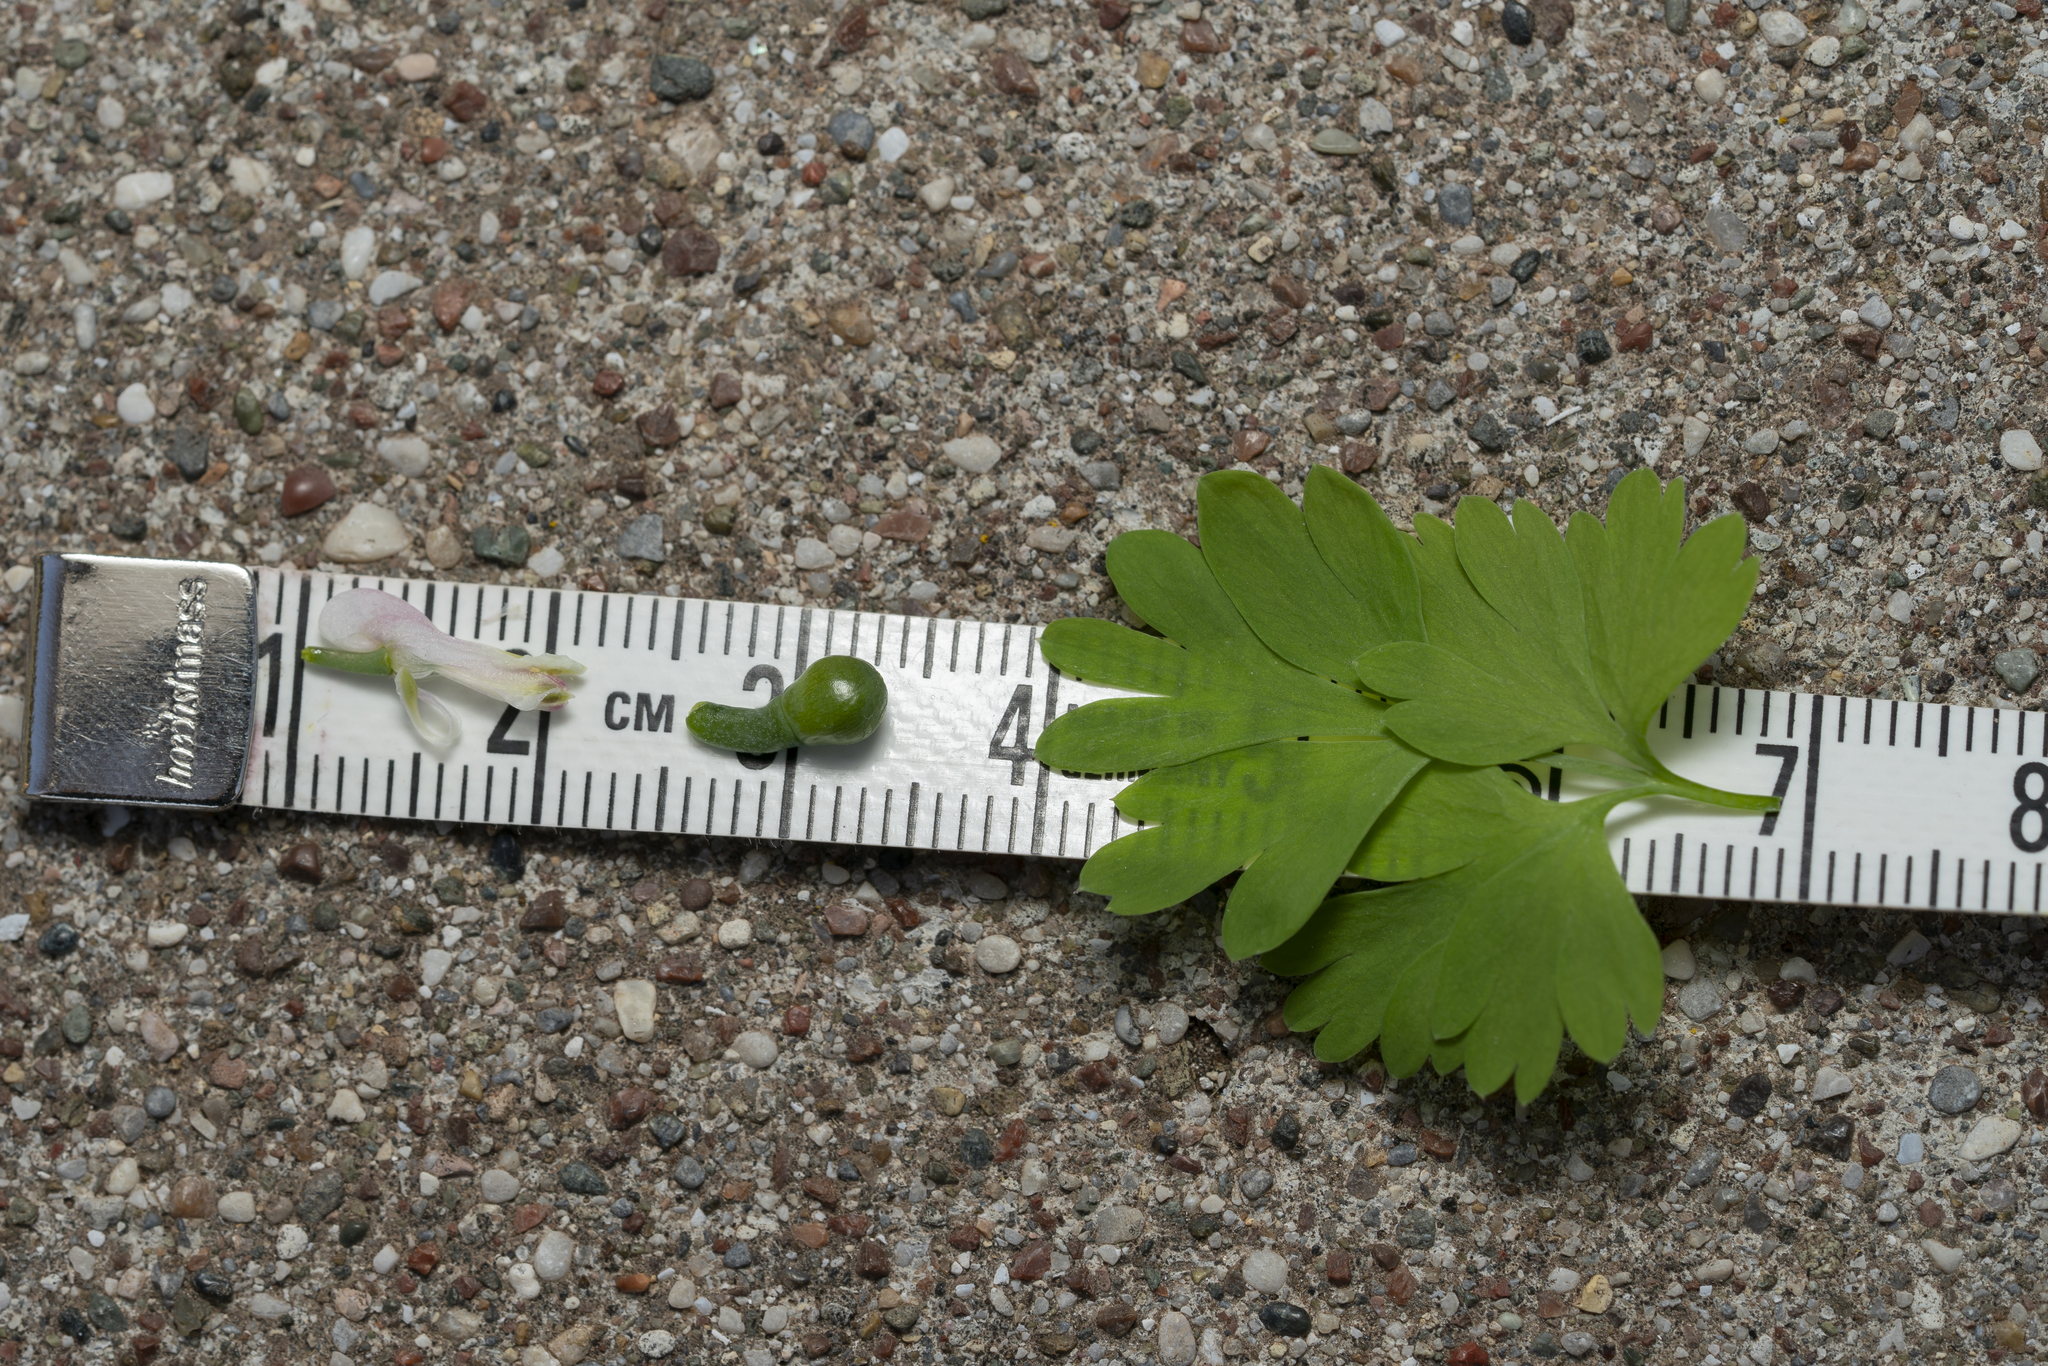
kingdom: Plantae
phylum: Tracheophyta
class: Magnoliopsida
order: Ranunculales
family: Papaveraceae
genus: Fumaria
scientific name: Fumaria macrocarpa
